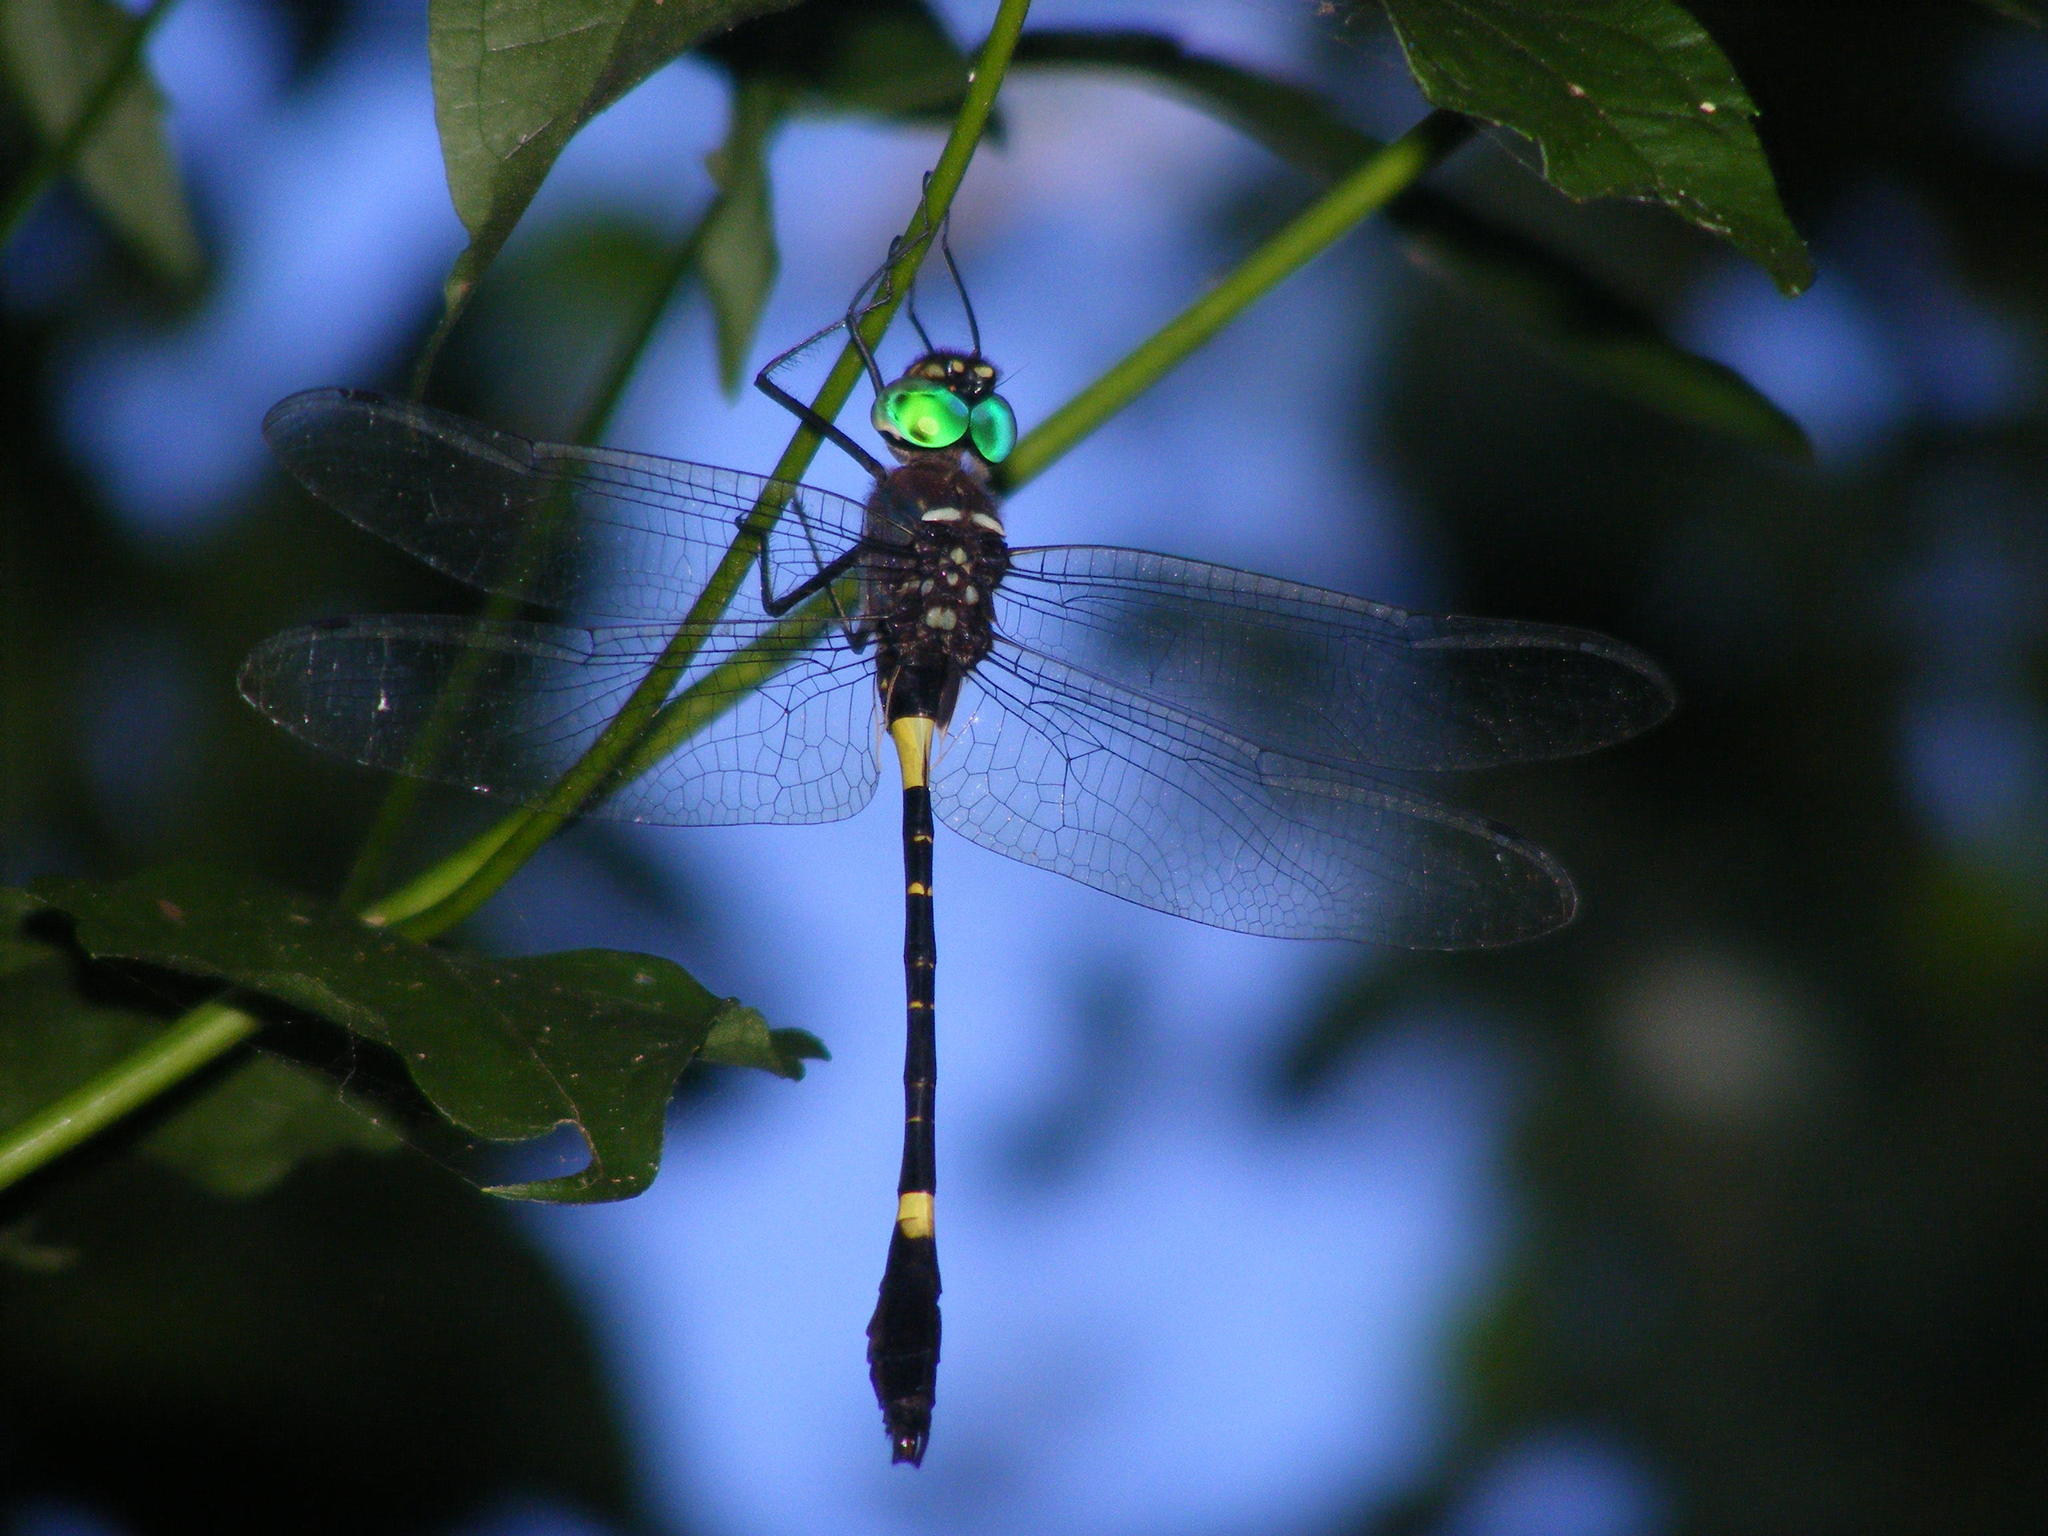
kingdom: Animalia
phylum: Arthropoda
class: Insecta
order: Odonata
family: Macromiidae
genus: Phyllomacromia
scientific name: Phyllomacromia contumax
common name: Two-banded cruiser
